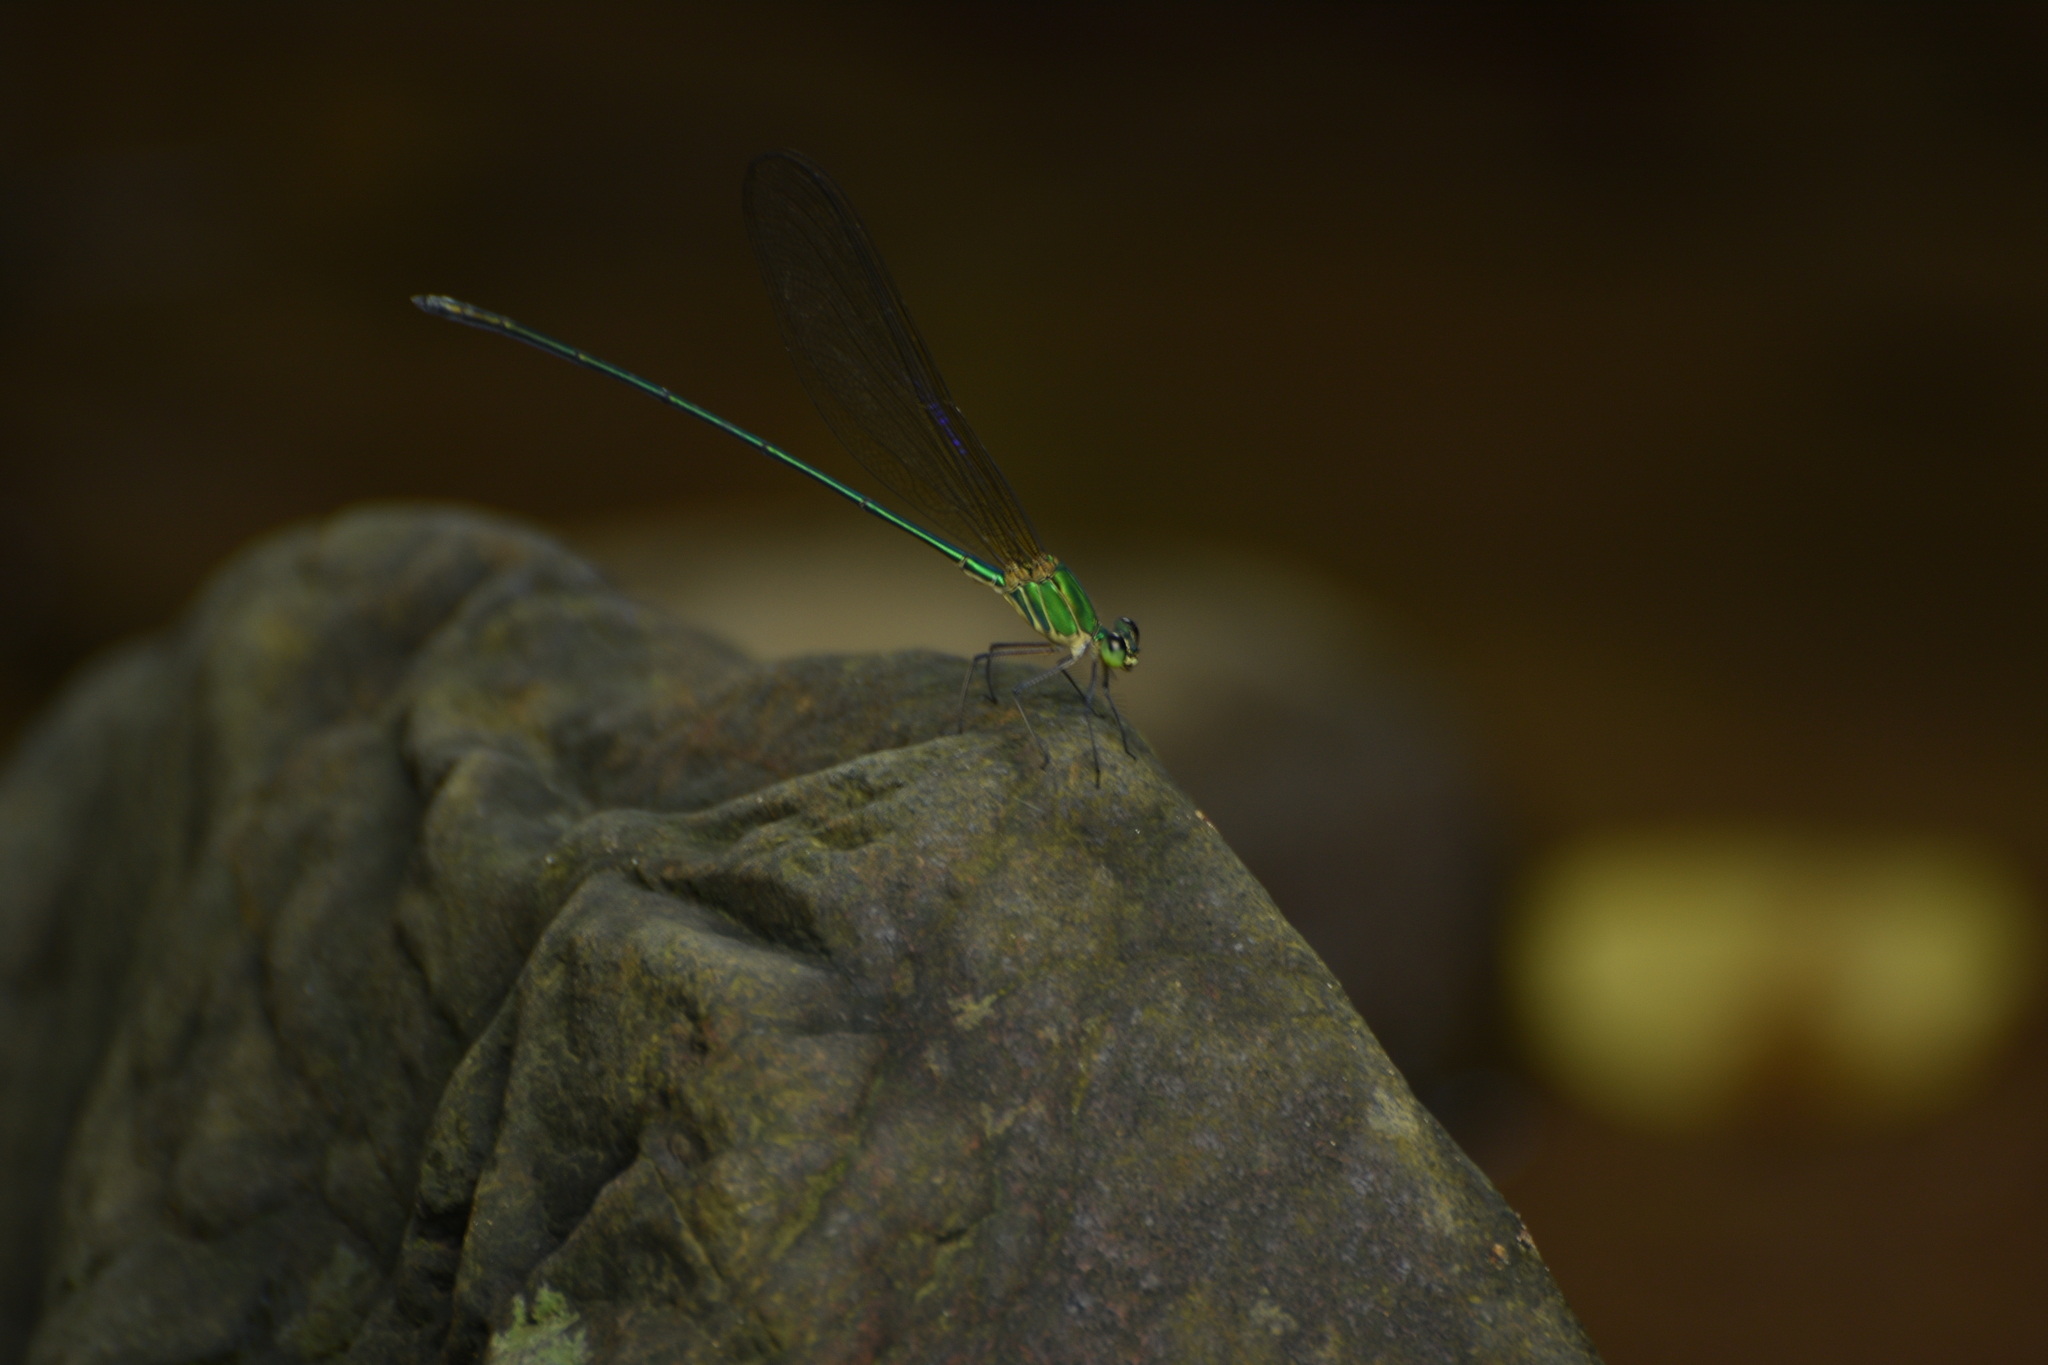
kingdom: Animalia
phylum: Arthropoda
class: Insecta
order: Odonata
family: Calopterygidae
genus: Vestalis
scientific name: Vestalis gracilis
